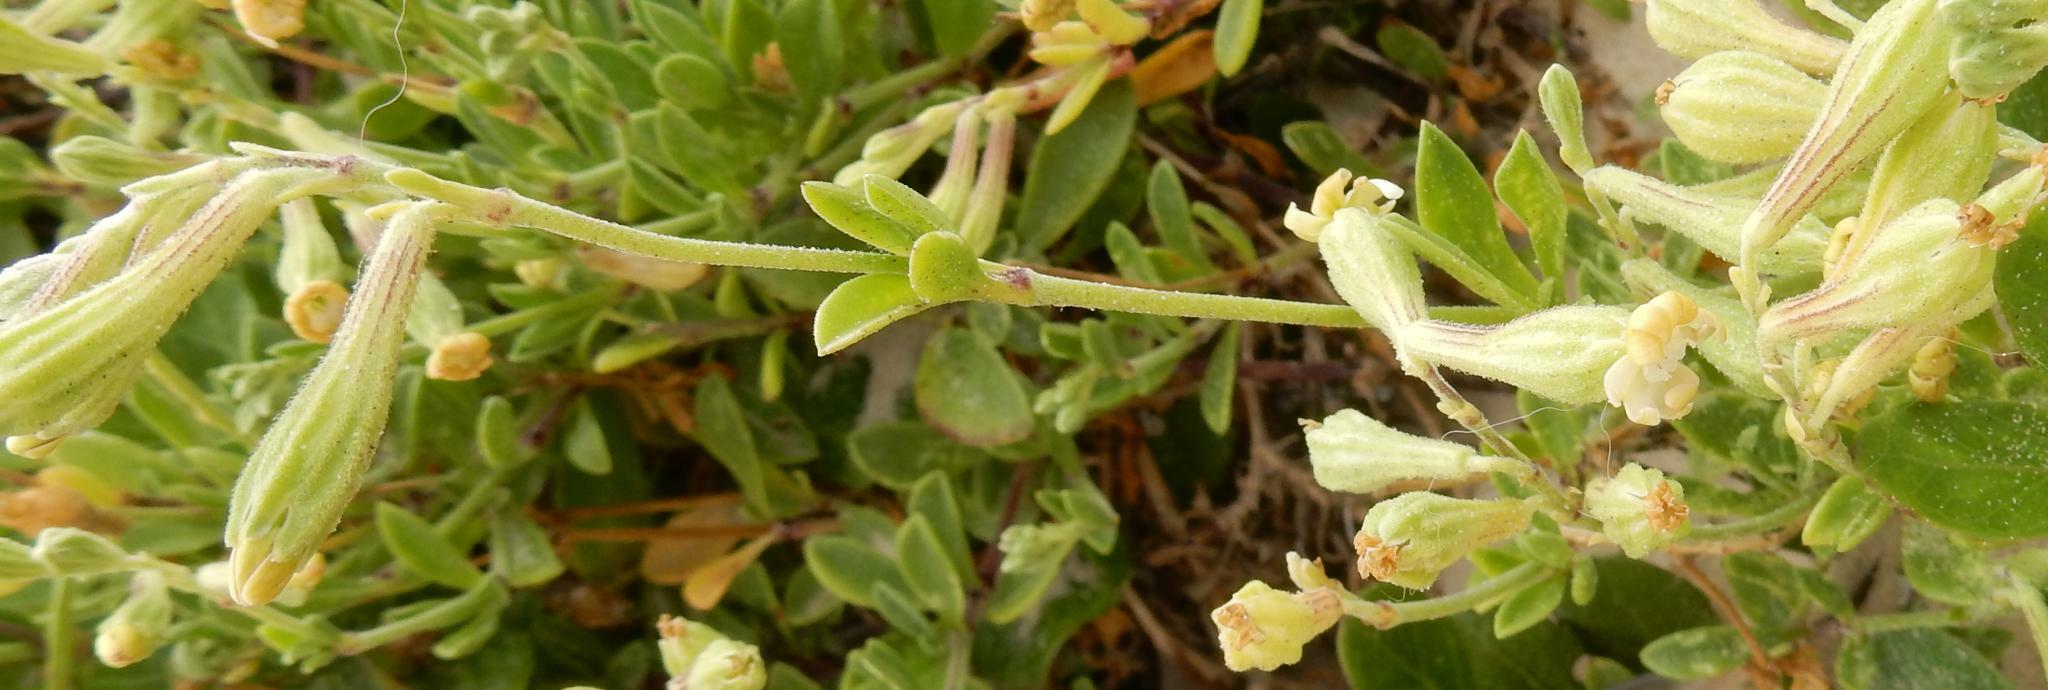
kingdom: Plantae
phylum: Tracheophyta
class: Magnoliopsida
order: Caryophyllales
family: Caryophyllaceae
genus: Silene
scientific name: Silene crassifolia
